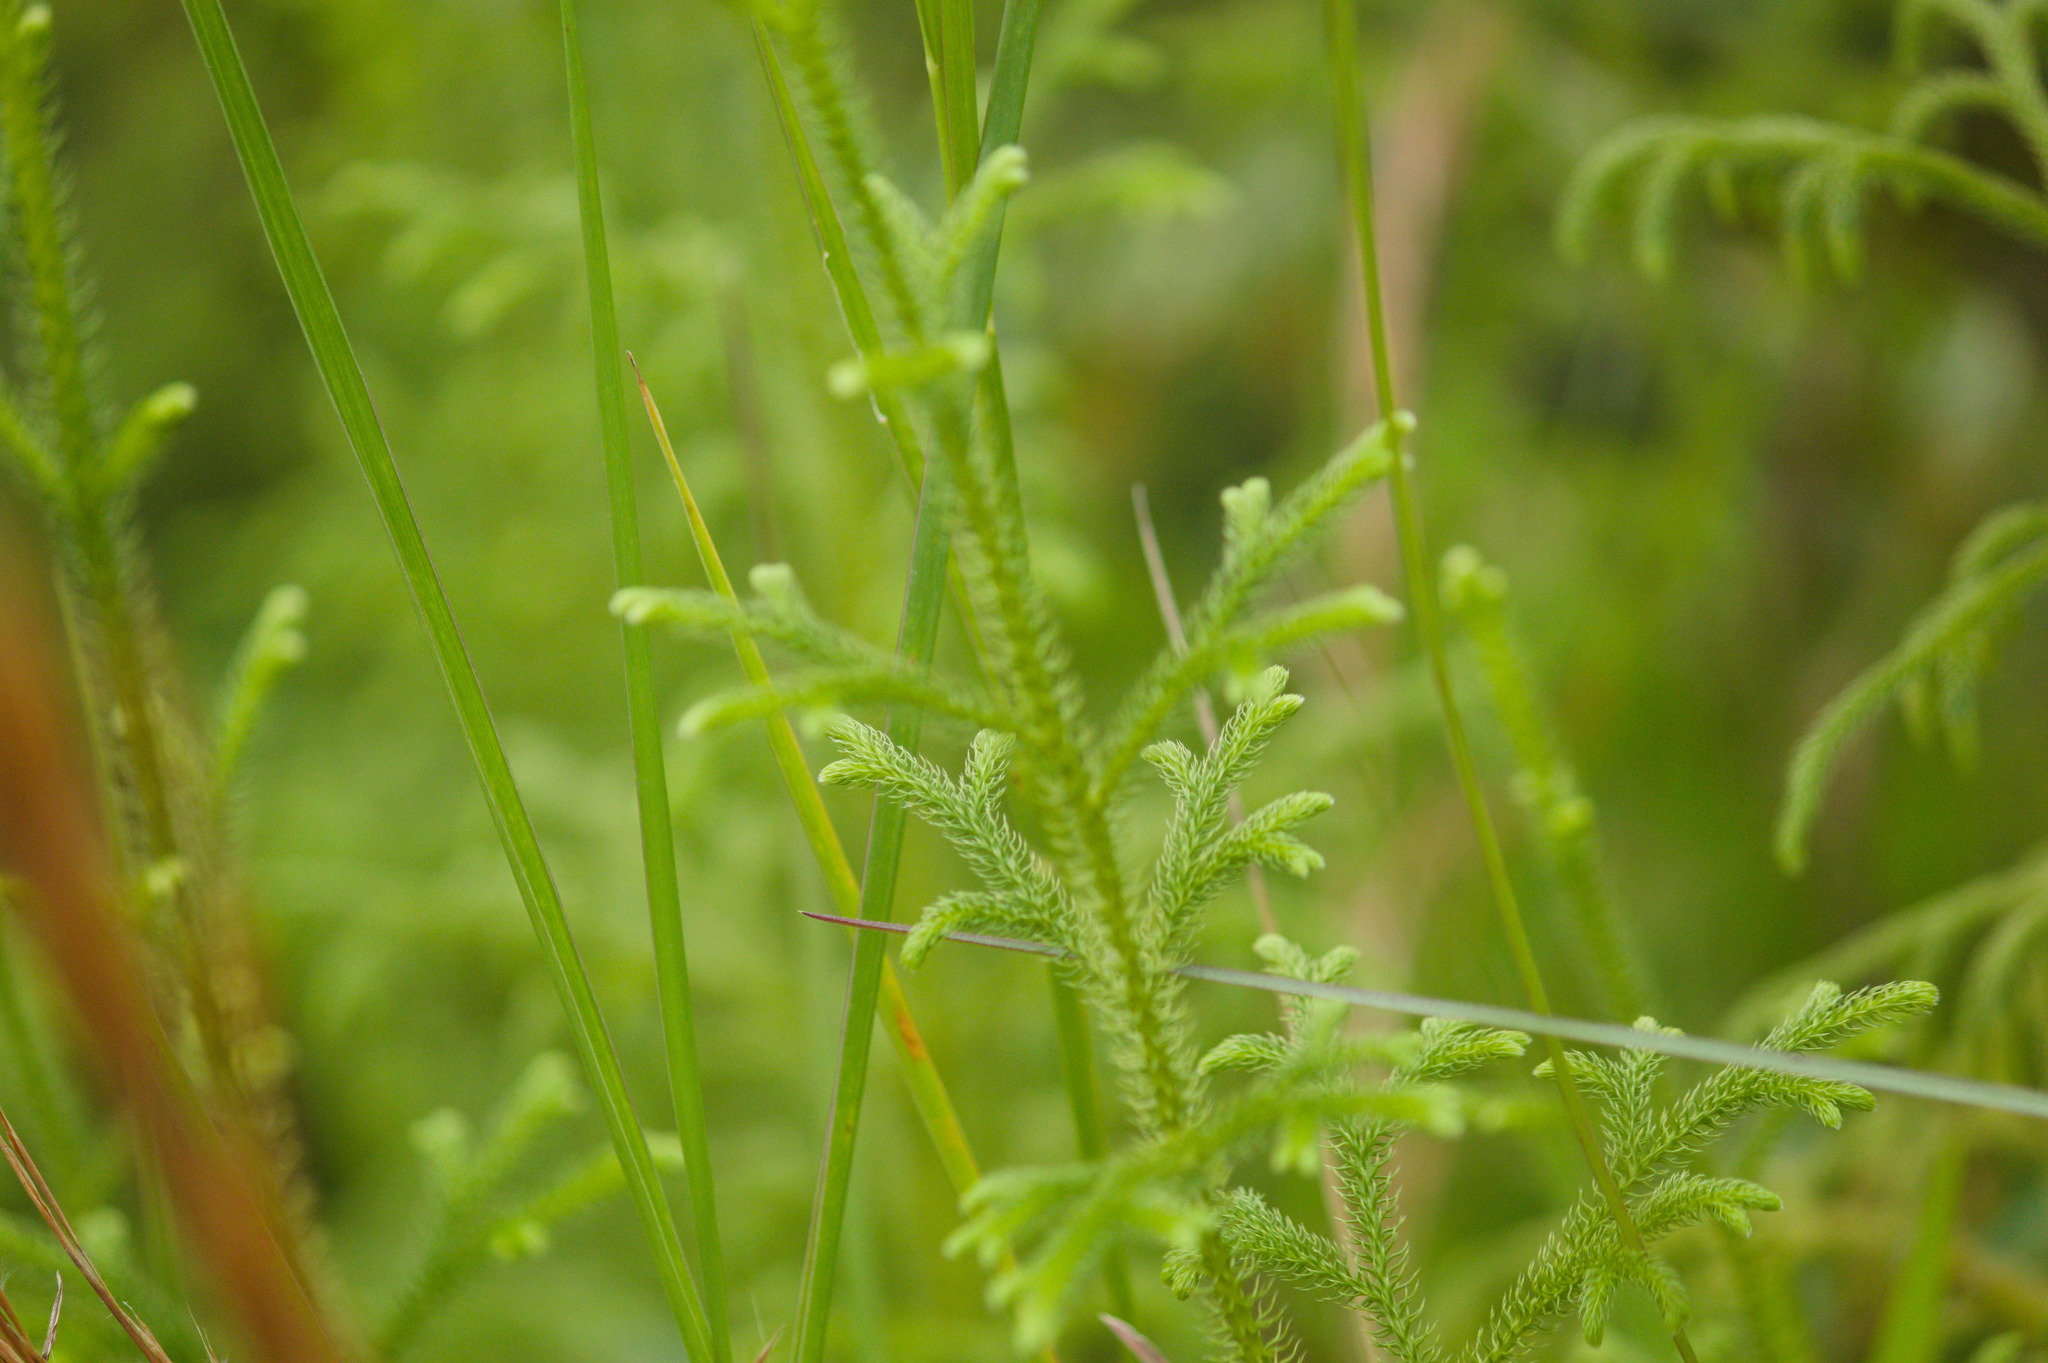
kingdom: Plantae
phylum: Tracheophyta
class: Lycopodiopsida
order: Lycopodiales
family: Lycopodiaceae
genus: Palhinhaea
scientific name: Palhinhaea cernua
